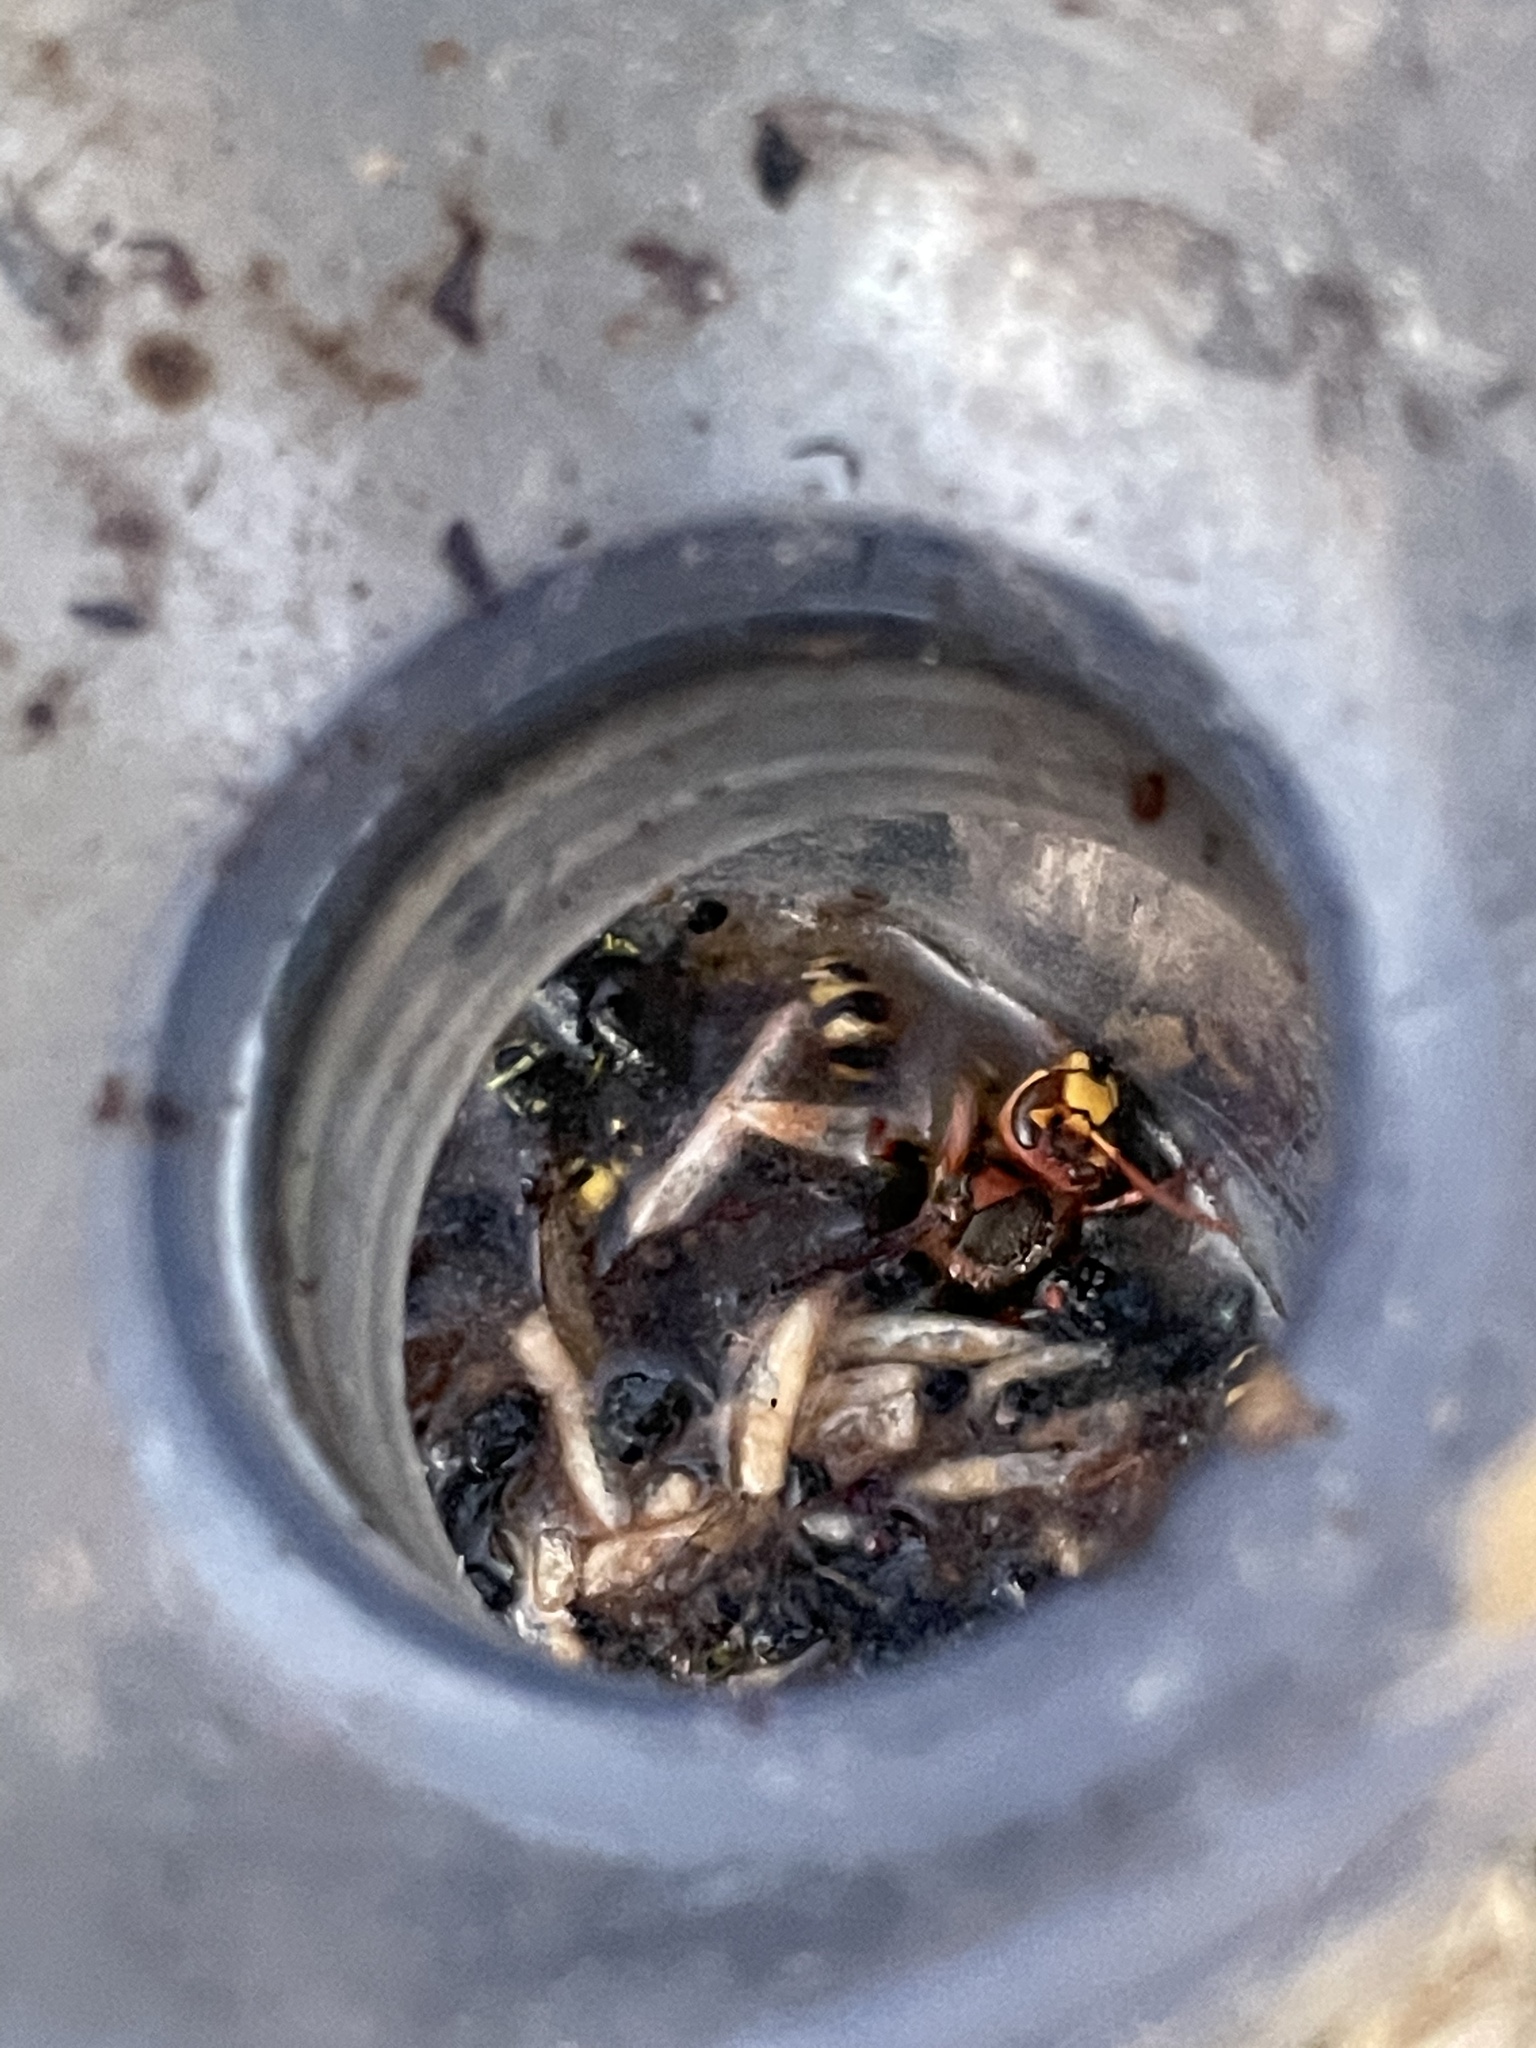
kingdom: Animalia
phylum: Arthropoda
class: Insecta
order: Hymenoptera
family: Vespidae
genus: Vespa
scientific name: Vespa crabro
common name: Hornet
